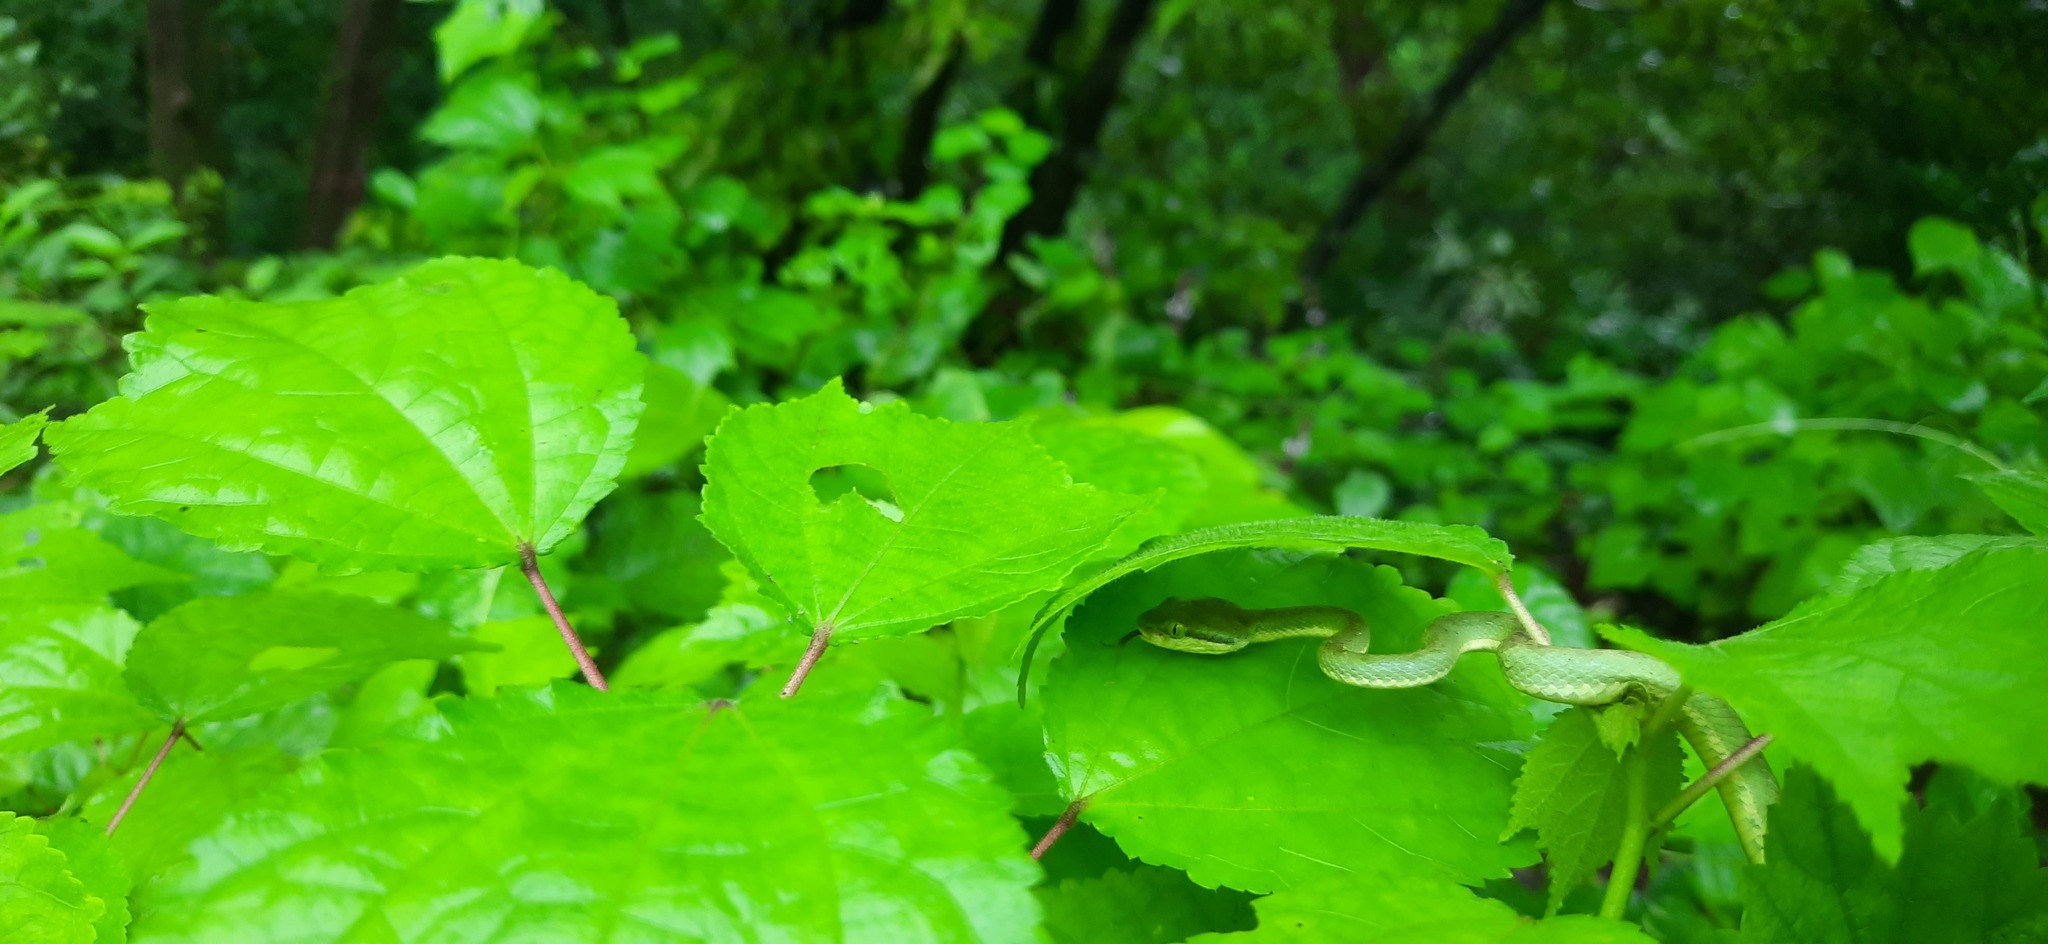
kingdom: Animalia
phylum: Chordata
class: Squamata
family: Viperidae
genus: Craspedocephalus
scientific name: Craspedocephalus gramineus
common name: Common bamboo viper
